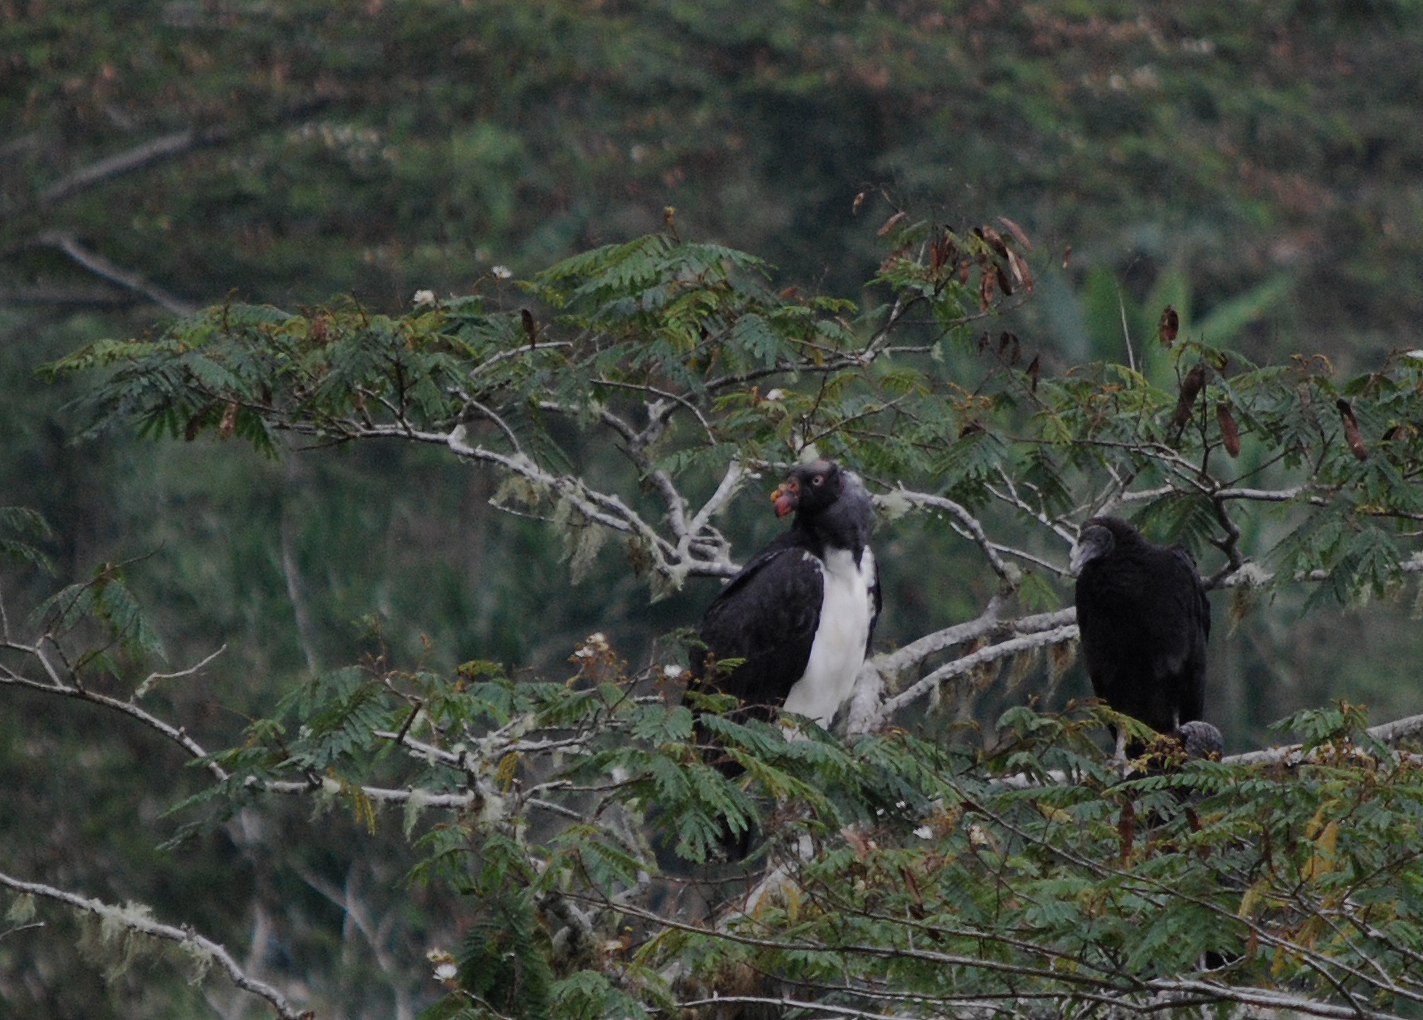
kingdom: Animalia
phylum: Chordata
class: Aves
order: Accipitriformes
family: Cathartidae
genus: Sarcoramphus
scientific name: Sarcoramphus papa
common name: King vulture
